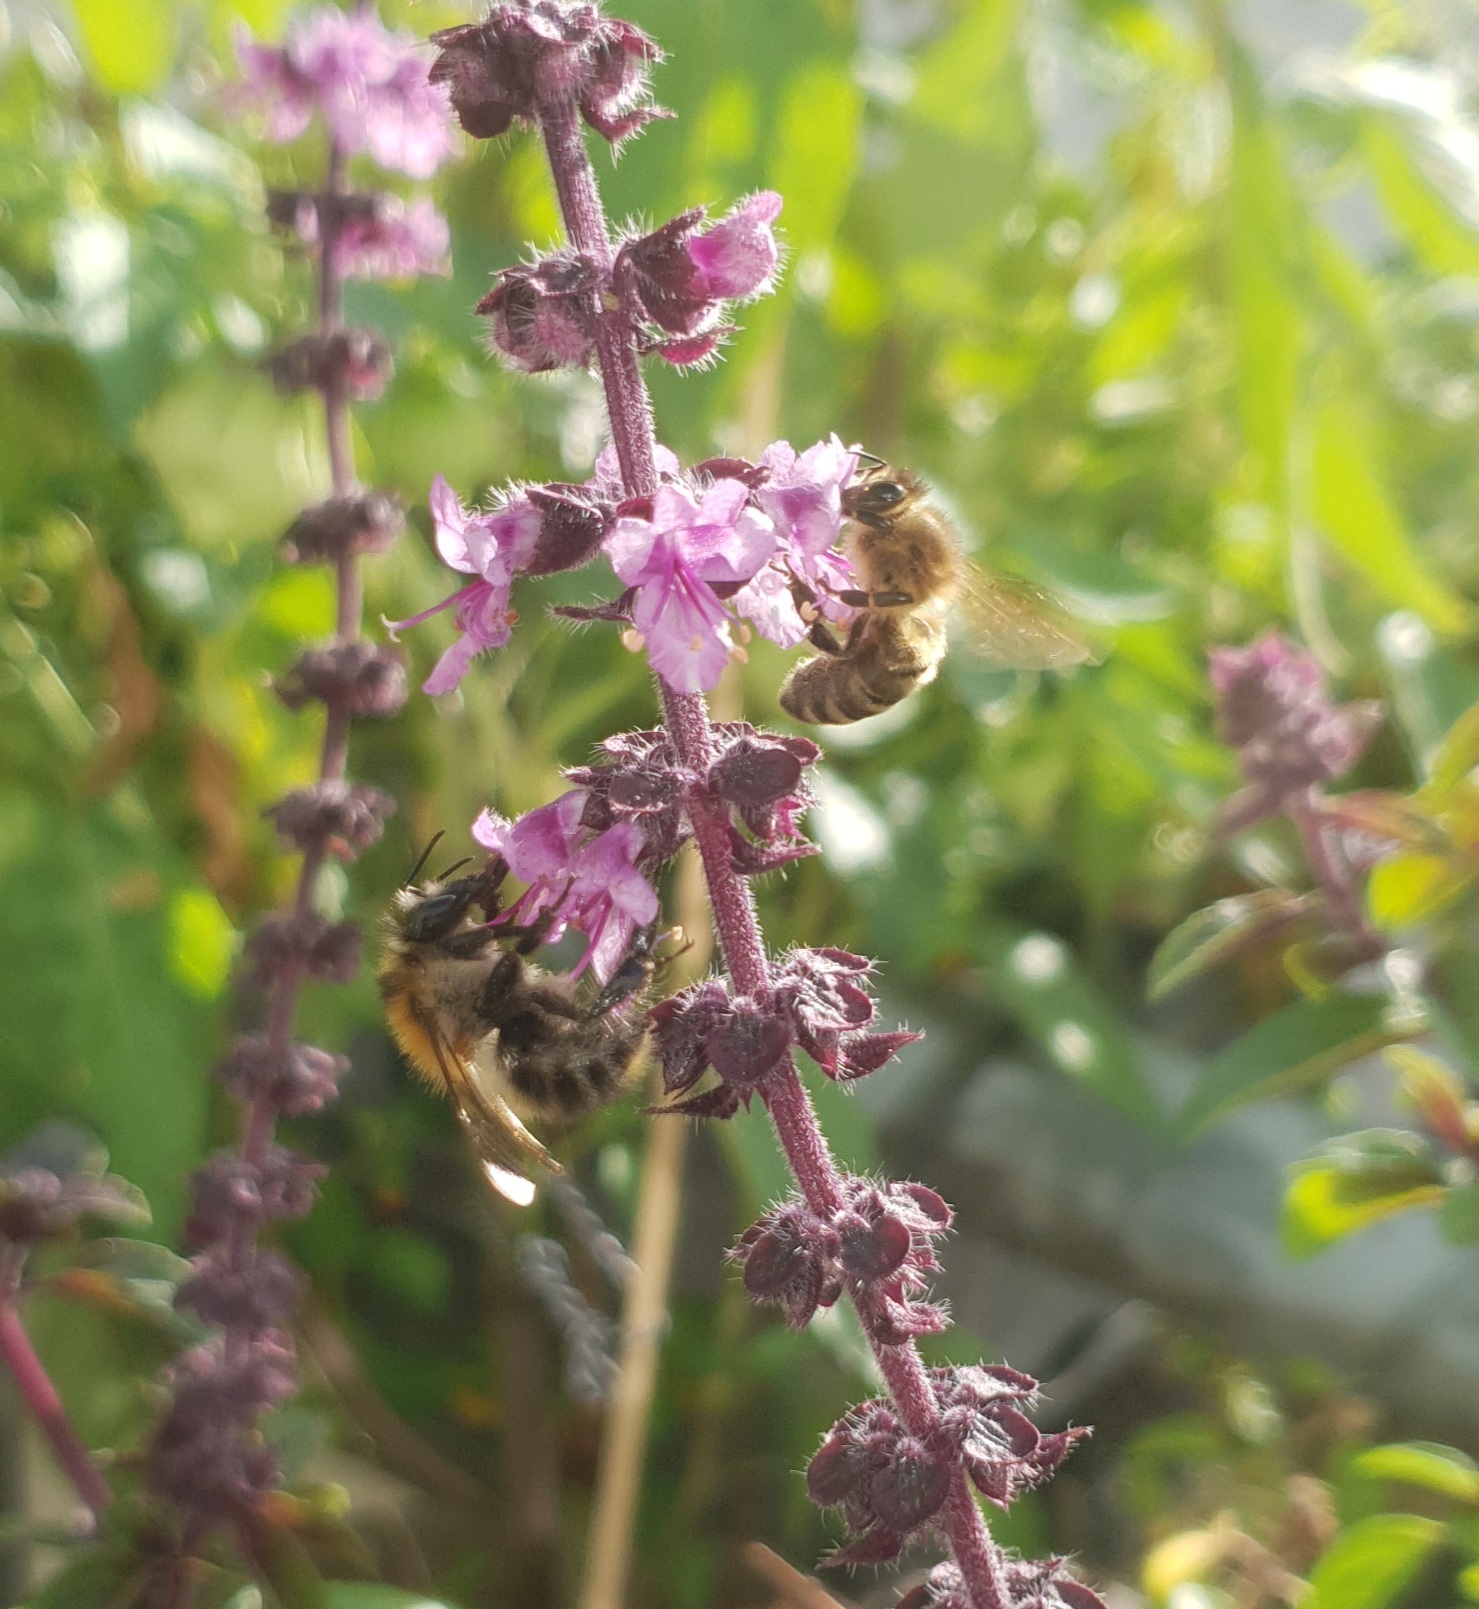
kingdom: Animalia
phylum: Arthropoda
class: Insecta
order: Hymenoptera
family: Apidae
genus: Bombus
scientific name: Bombus pascuorum
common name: Common carder bee
